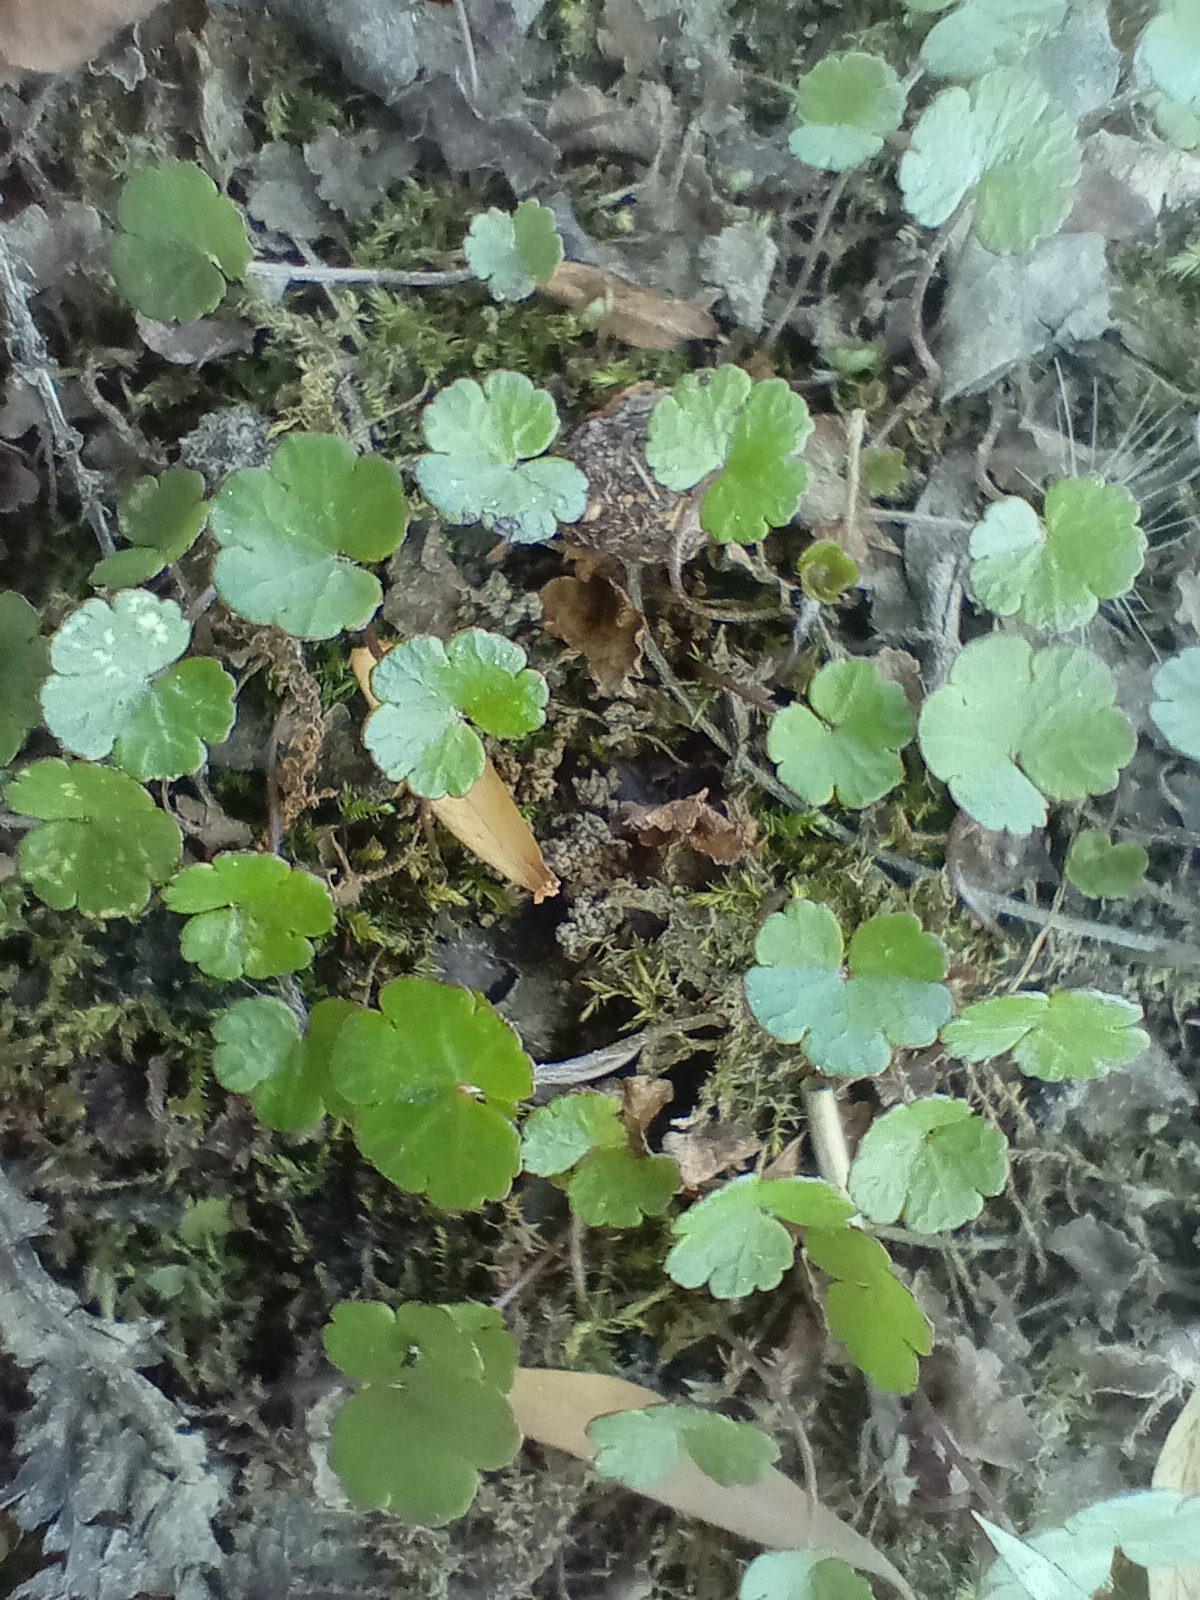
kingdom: Plantae
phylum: Tracheophyta
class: Magnoliopsida
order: Apiales
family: Araliaceae
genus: Hydrocotyle
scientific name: Hydrocotyle microphylla
